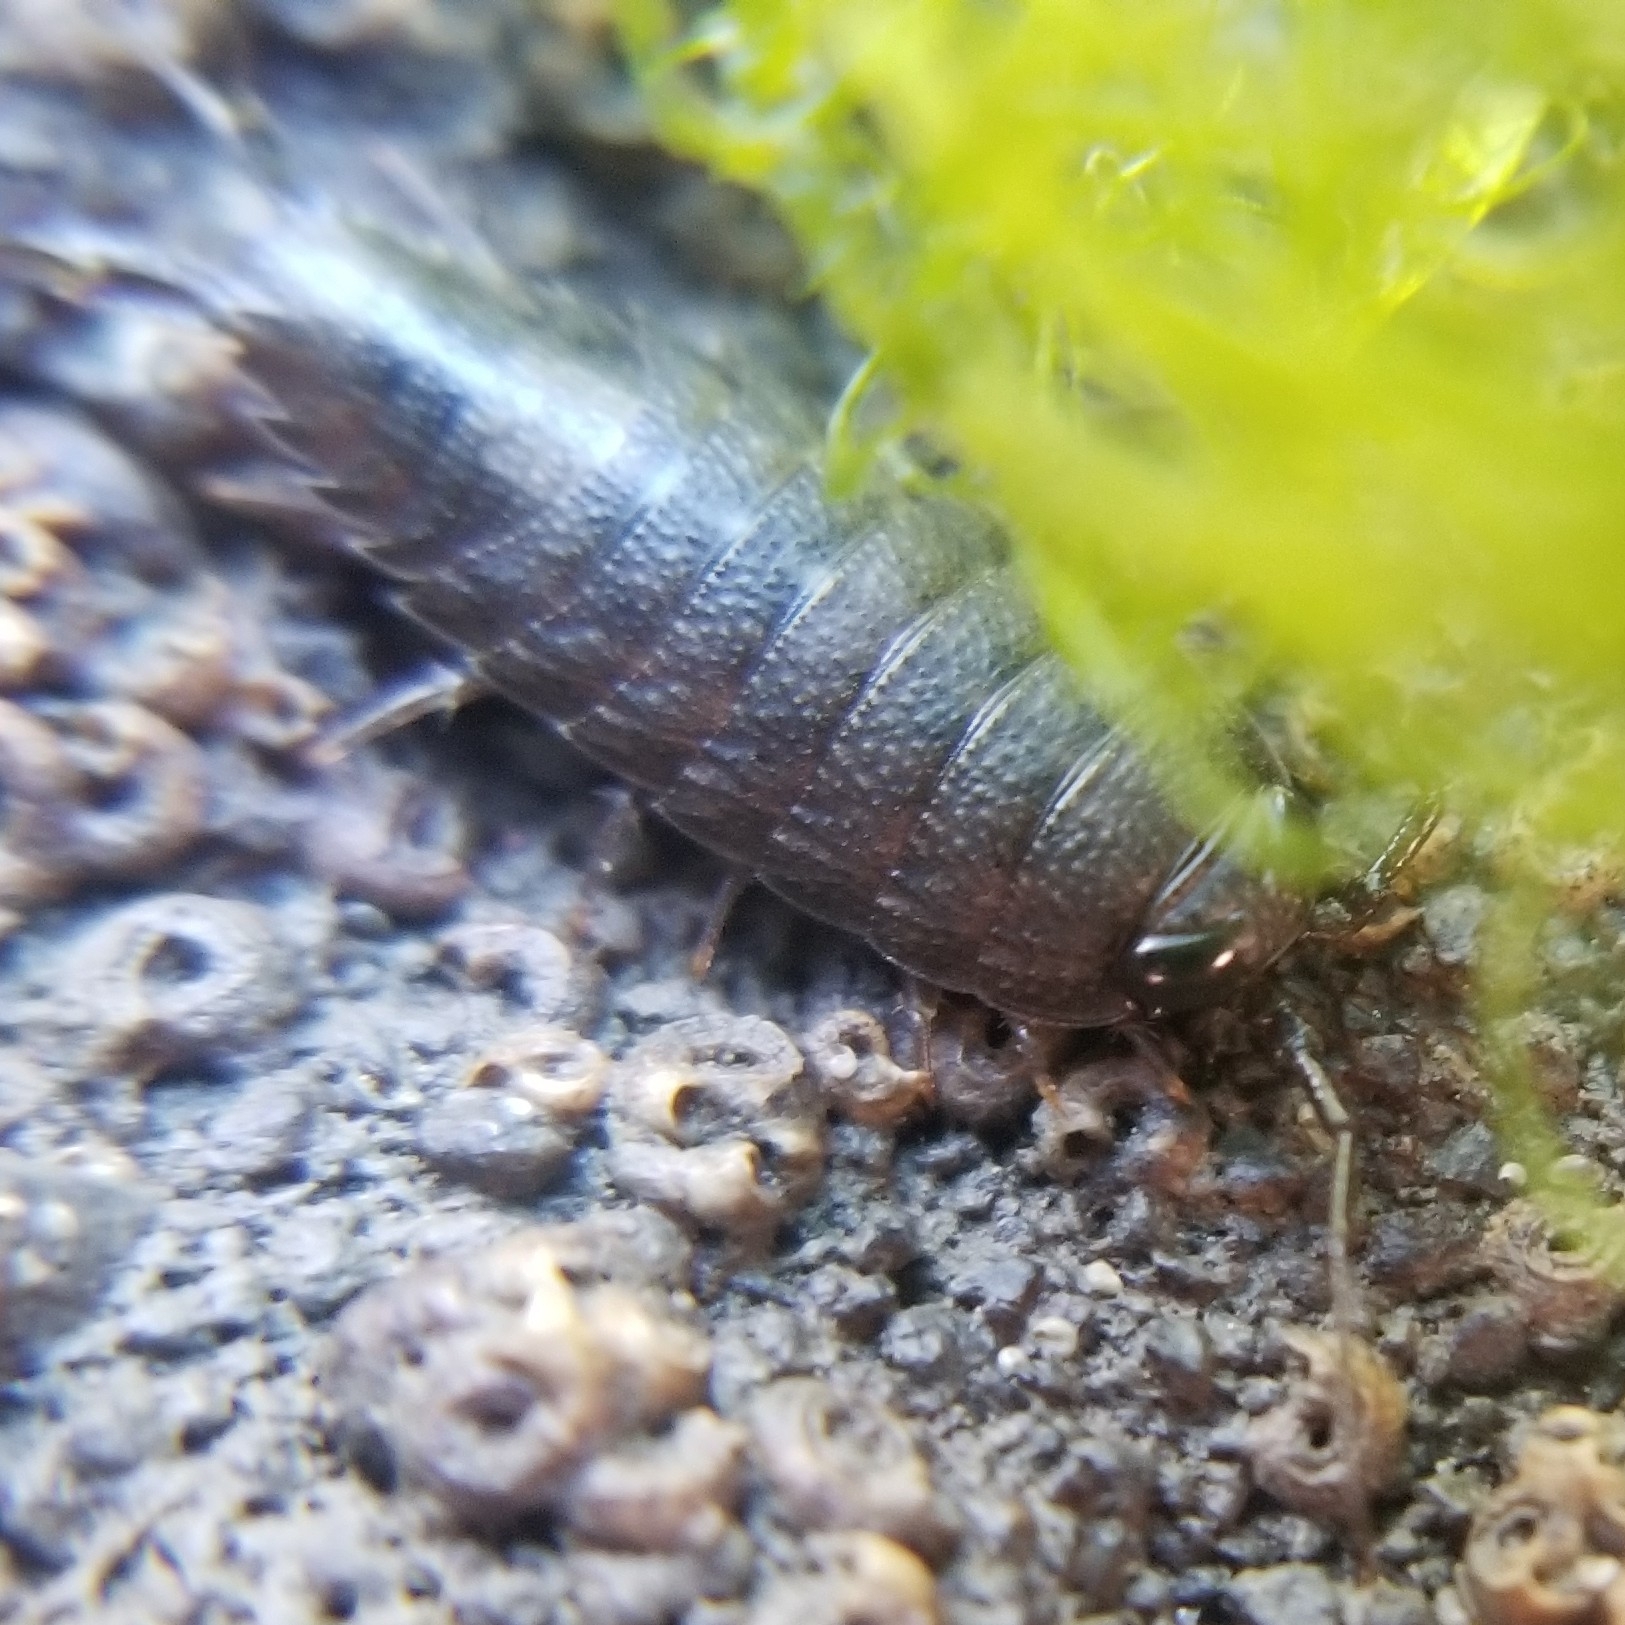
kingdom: Animalia
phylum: Arthropoda
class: Malacostraca
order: Isopoda
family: Ligiidae
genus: Ligia
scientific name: Ligia occidentalis
